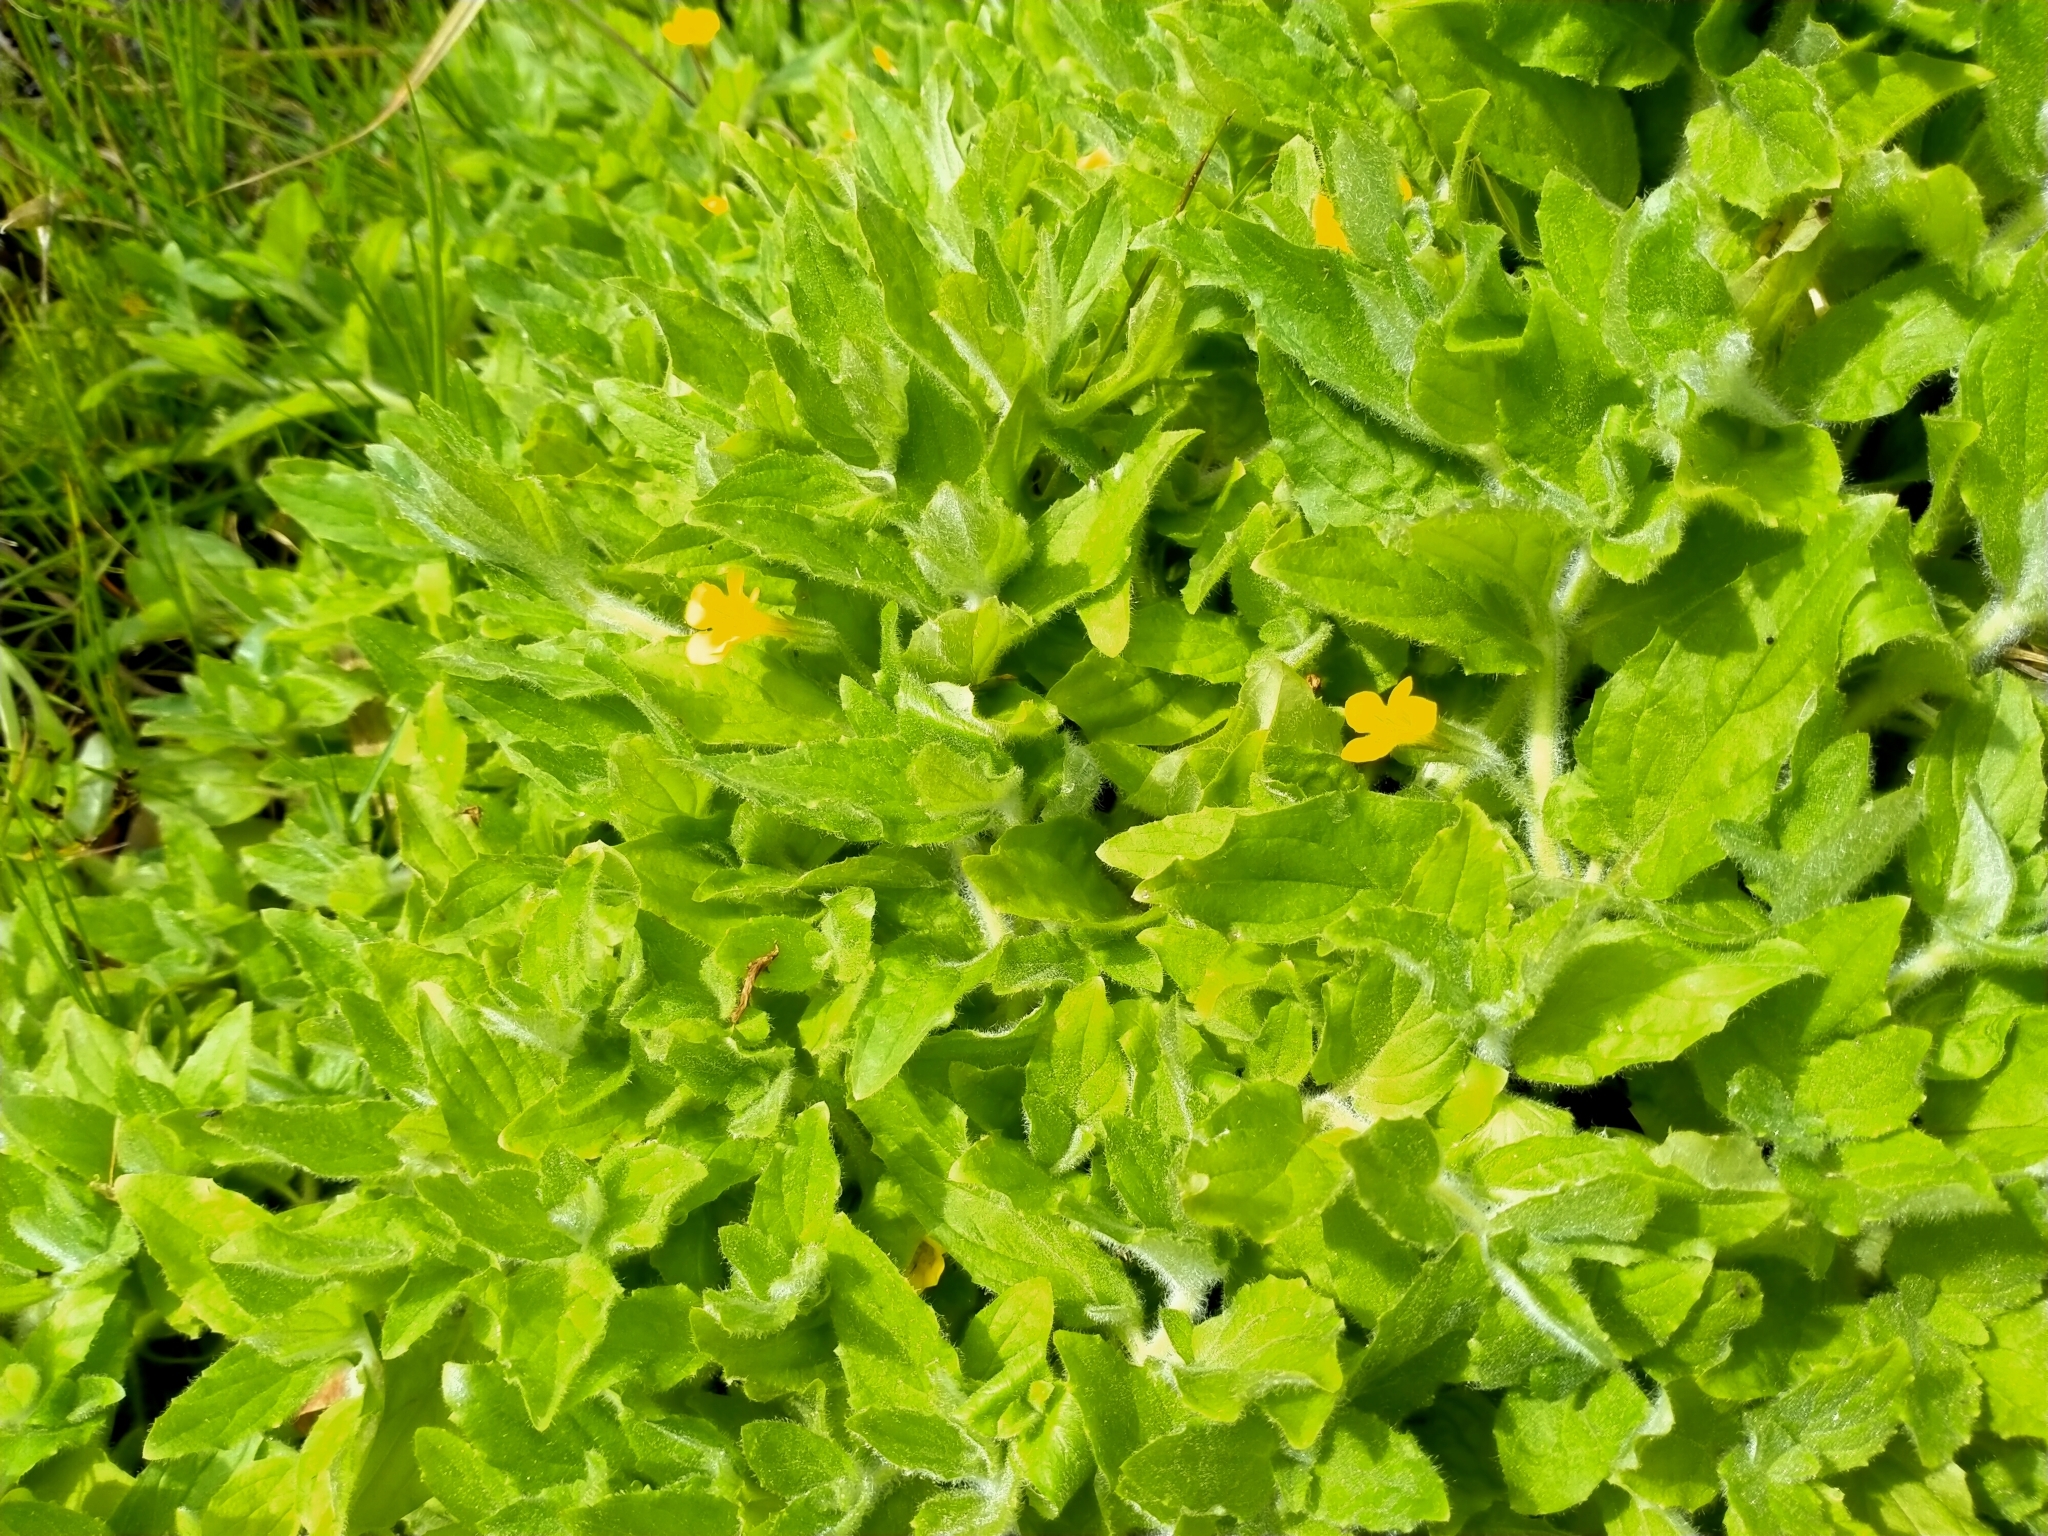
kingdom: Plantae
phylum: Tracheophyta
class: Magnoliopsida
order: Lamiales
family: Phrymaceae
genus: Erythranthe
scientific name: Erythranthe moschata
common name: Muskflower
